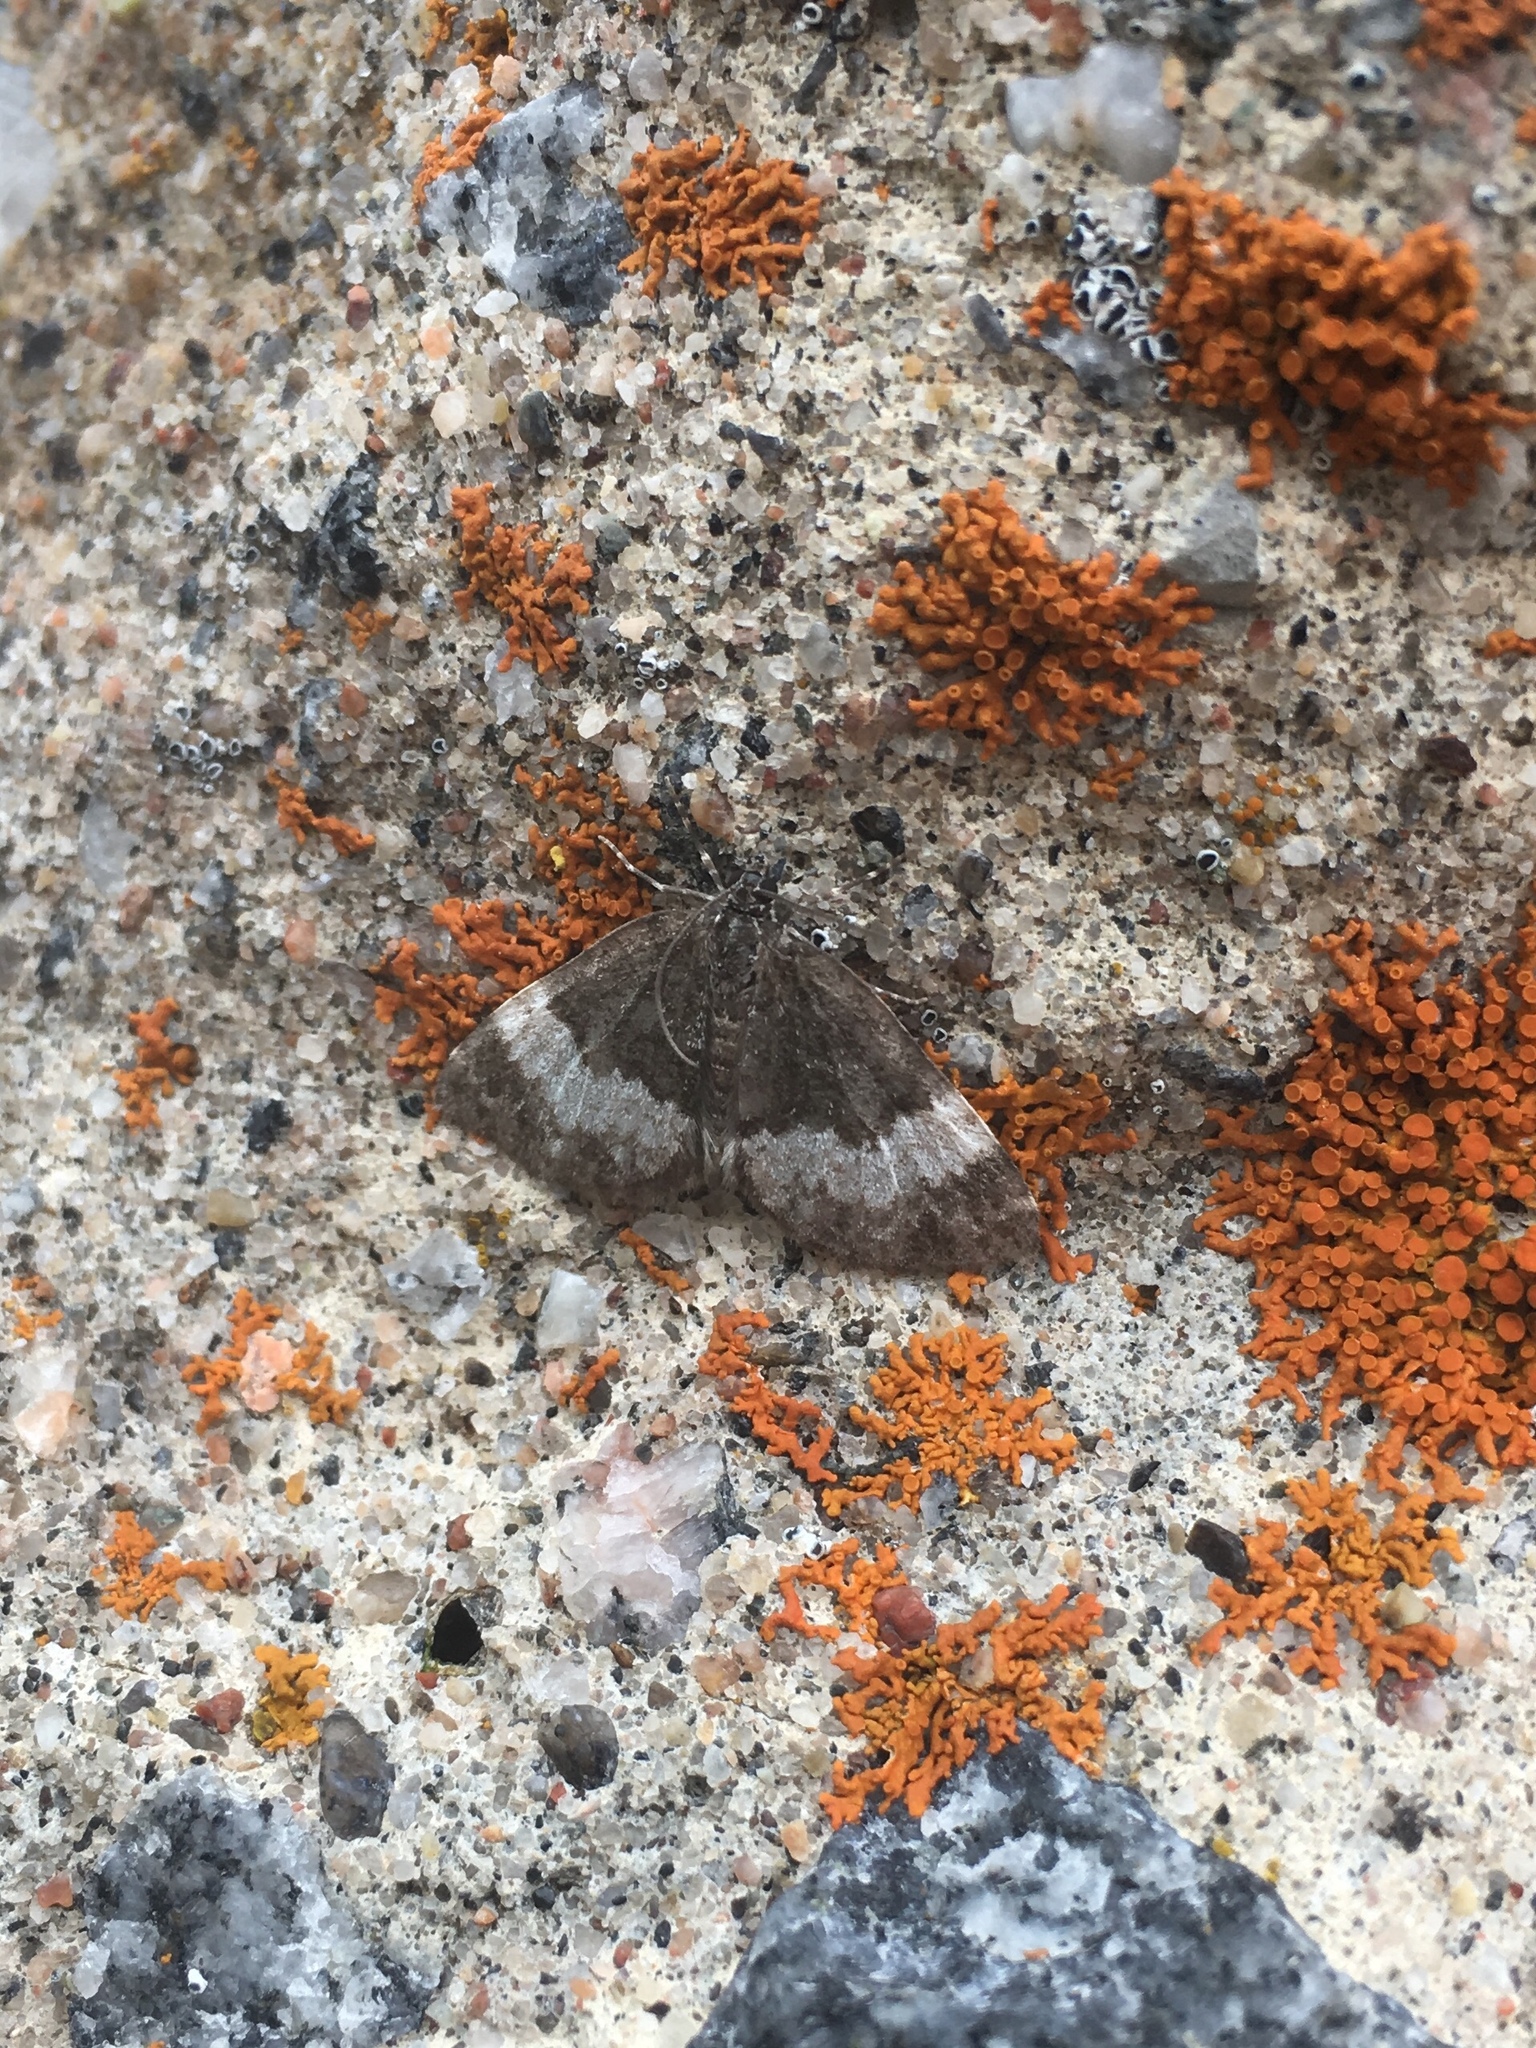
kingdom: Animalia
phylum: Arthropoda
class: Insecta
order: Lepidoptera
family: Geometridae
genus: Spargania
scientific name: Spargania luctuata
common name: White-banded carpet
